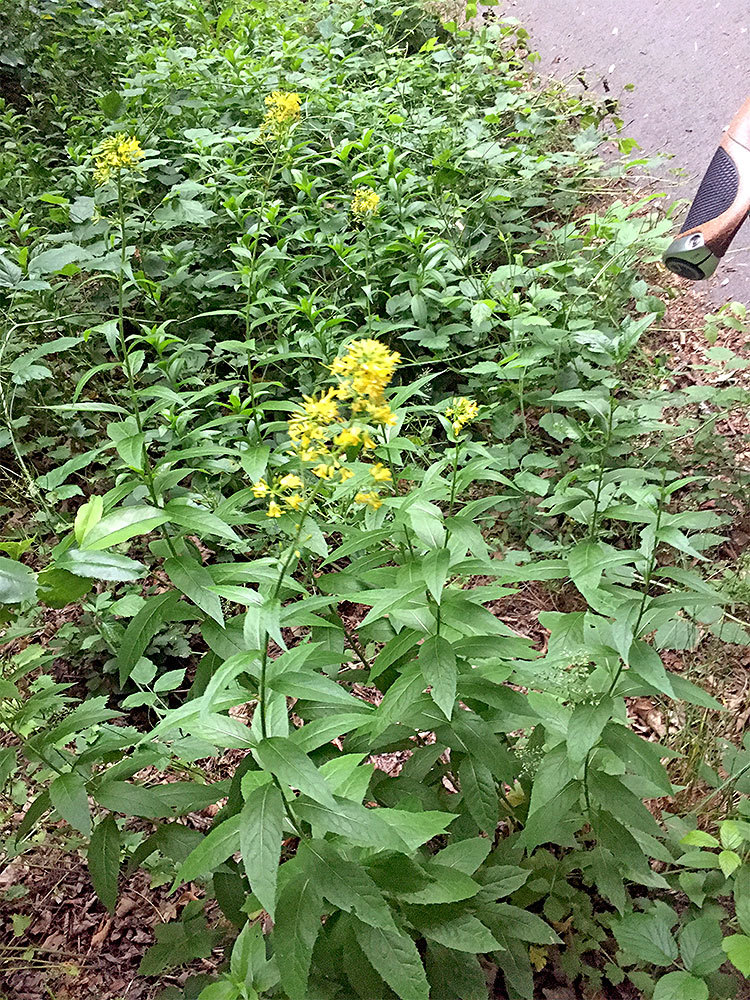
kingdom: Plantae
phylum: Tracheophyta
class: Magnoliopsida
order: Ericales
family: Primulaceae
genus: Lysimachia
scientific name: Lysimachia vulgaris
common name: Yellow loosestrife
